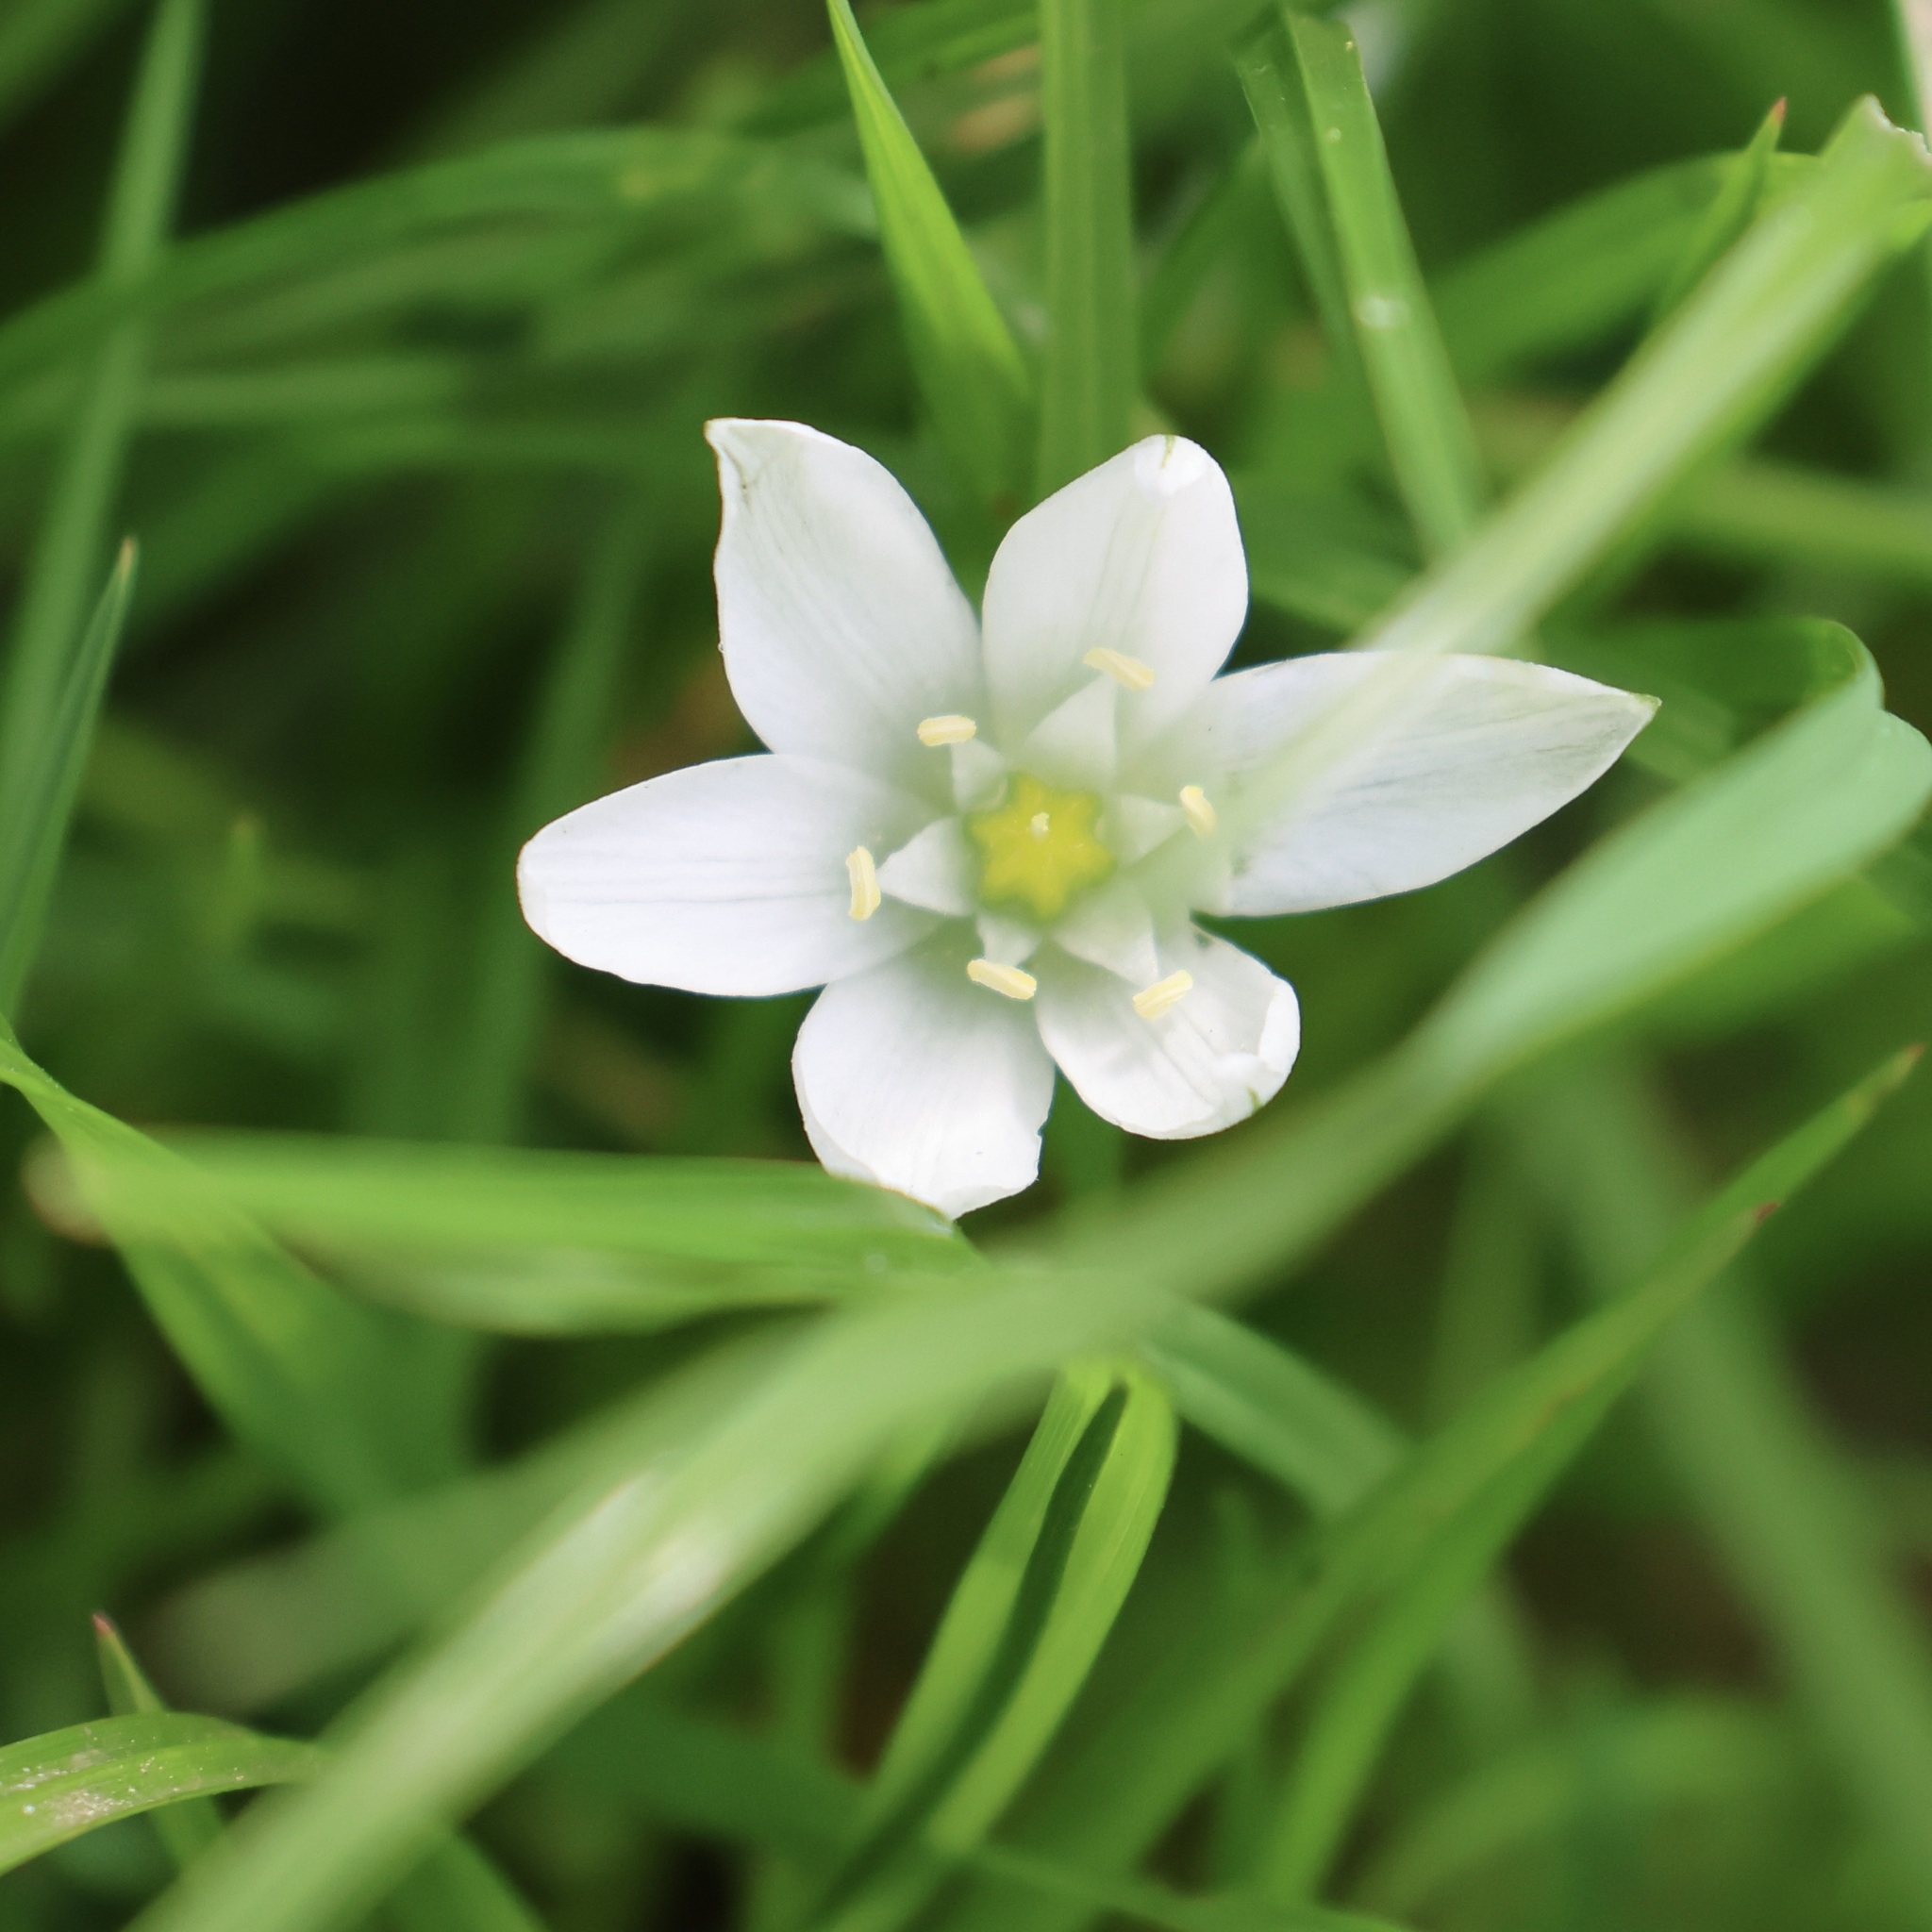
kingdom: Plantae
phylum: Tracheophyta
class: Liliopsida
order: Asparagales
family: Asparagaceae
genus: Ornithogalum
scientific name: Ornithogalum umbellatum
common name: Garden star-of-bethlehem
